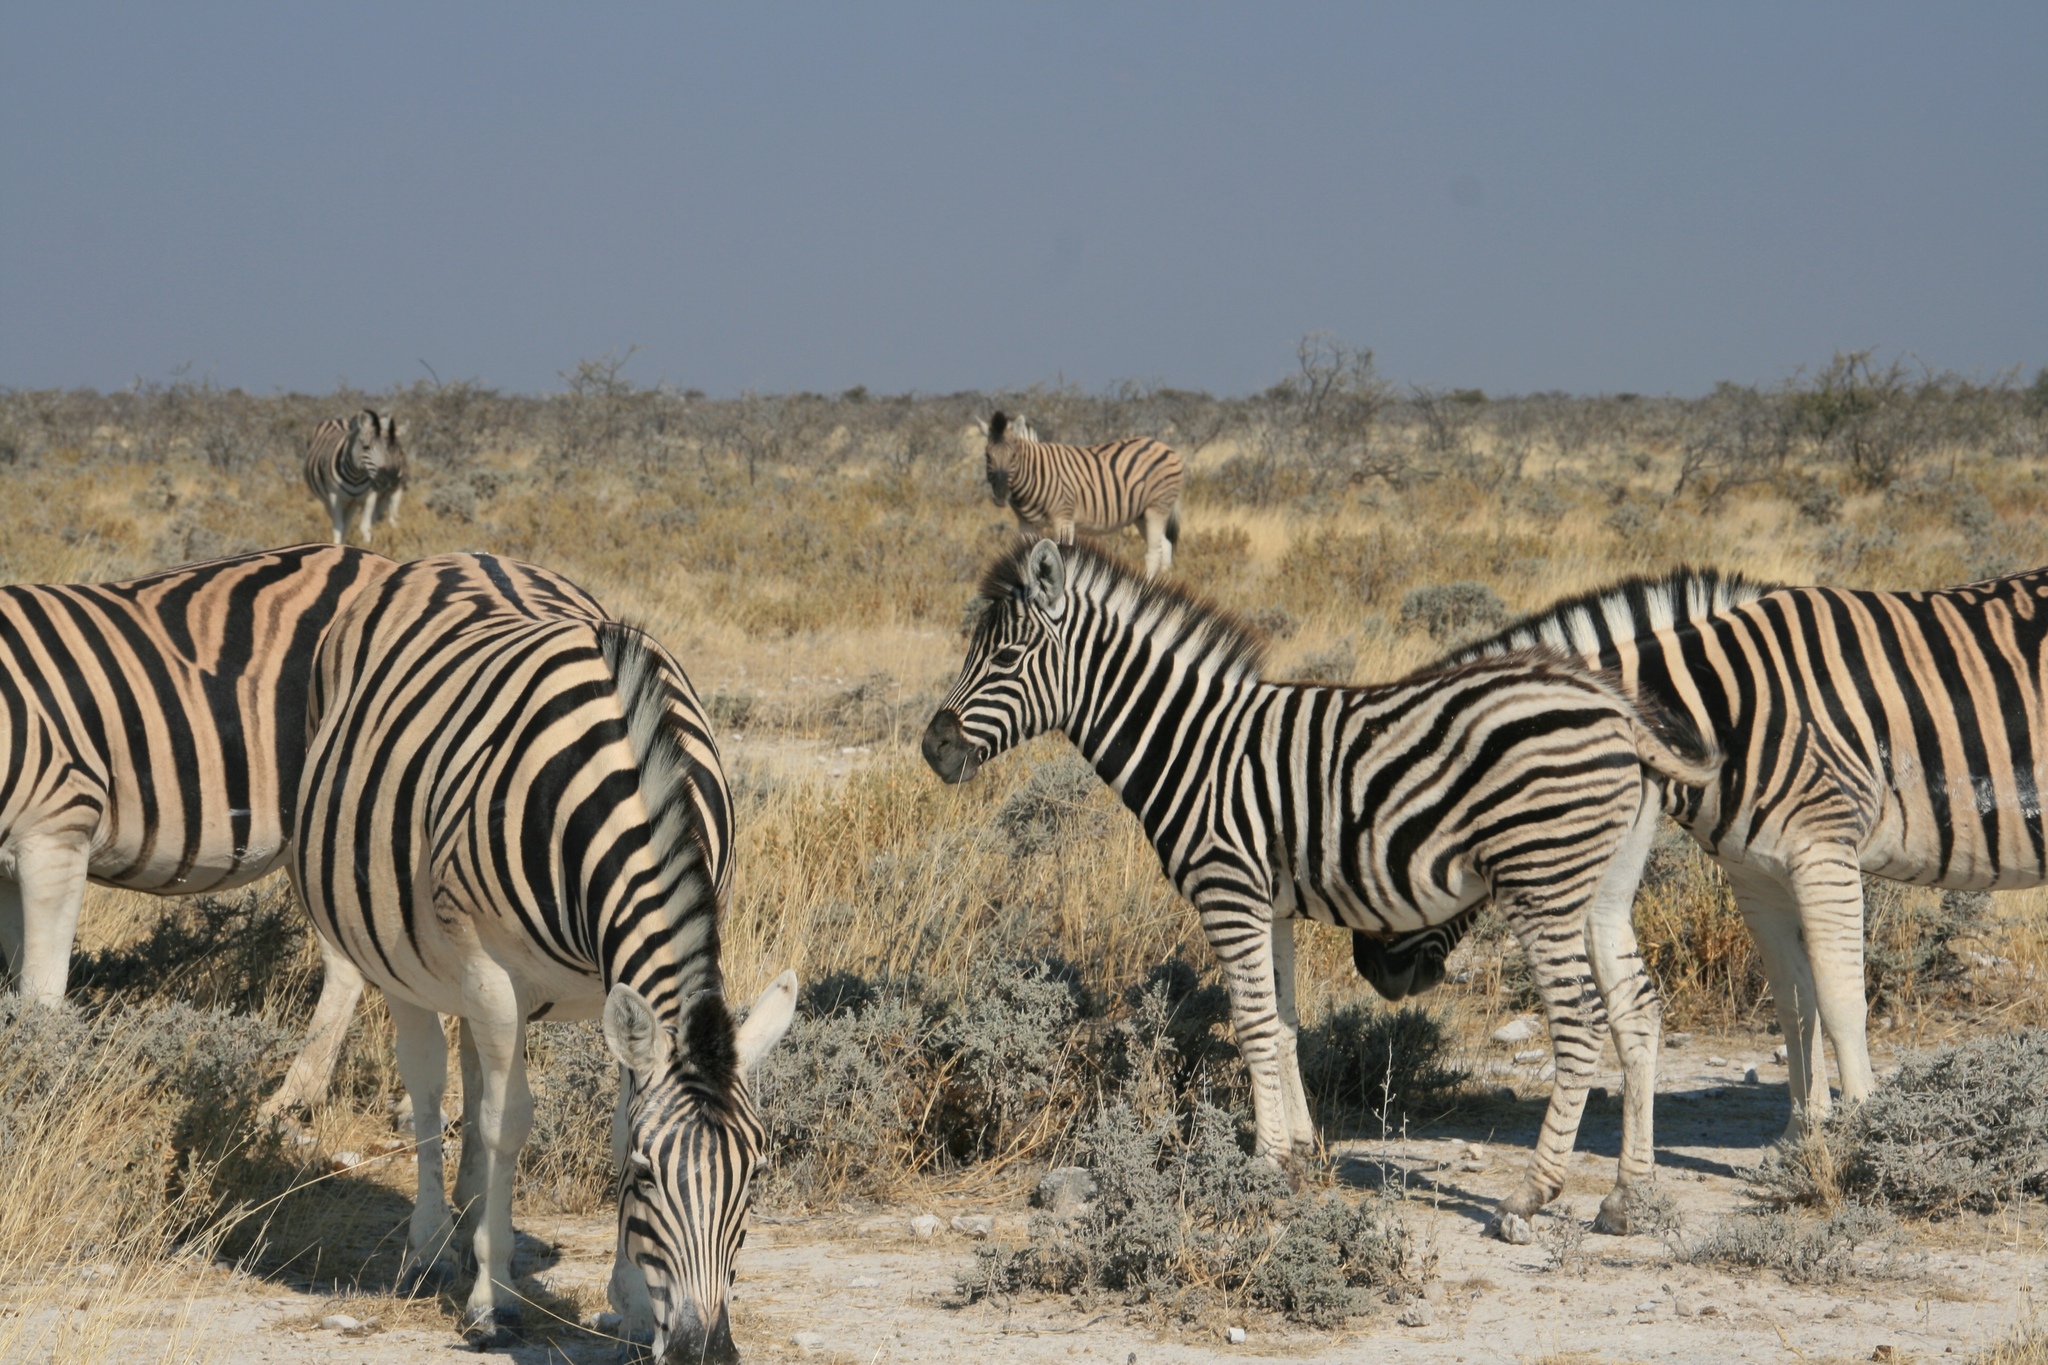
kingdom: Animalia
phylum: Chordata
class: Mammalia
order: Perissodactyla
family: Equidae
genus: Equus
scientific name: Equus quagga
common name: Plains zebra
